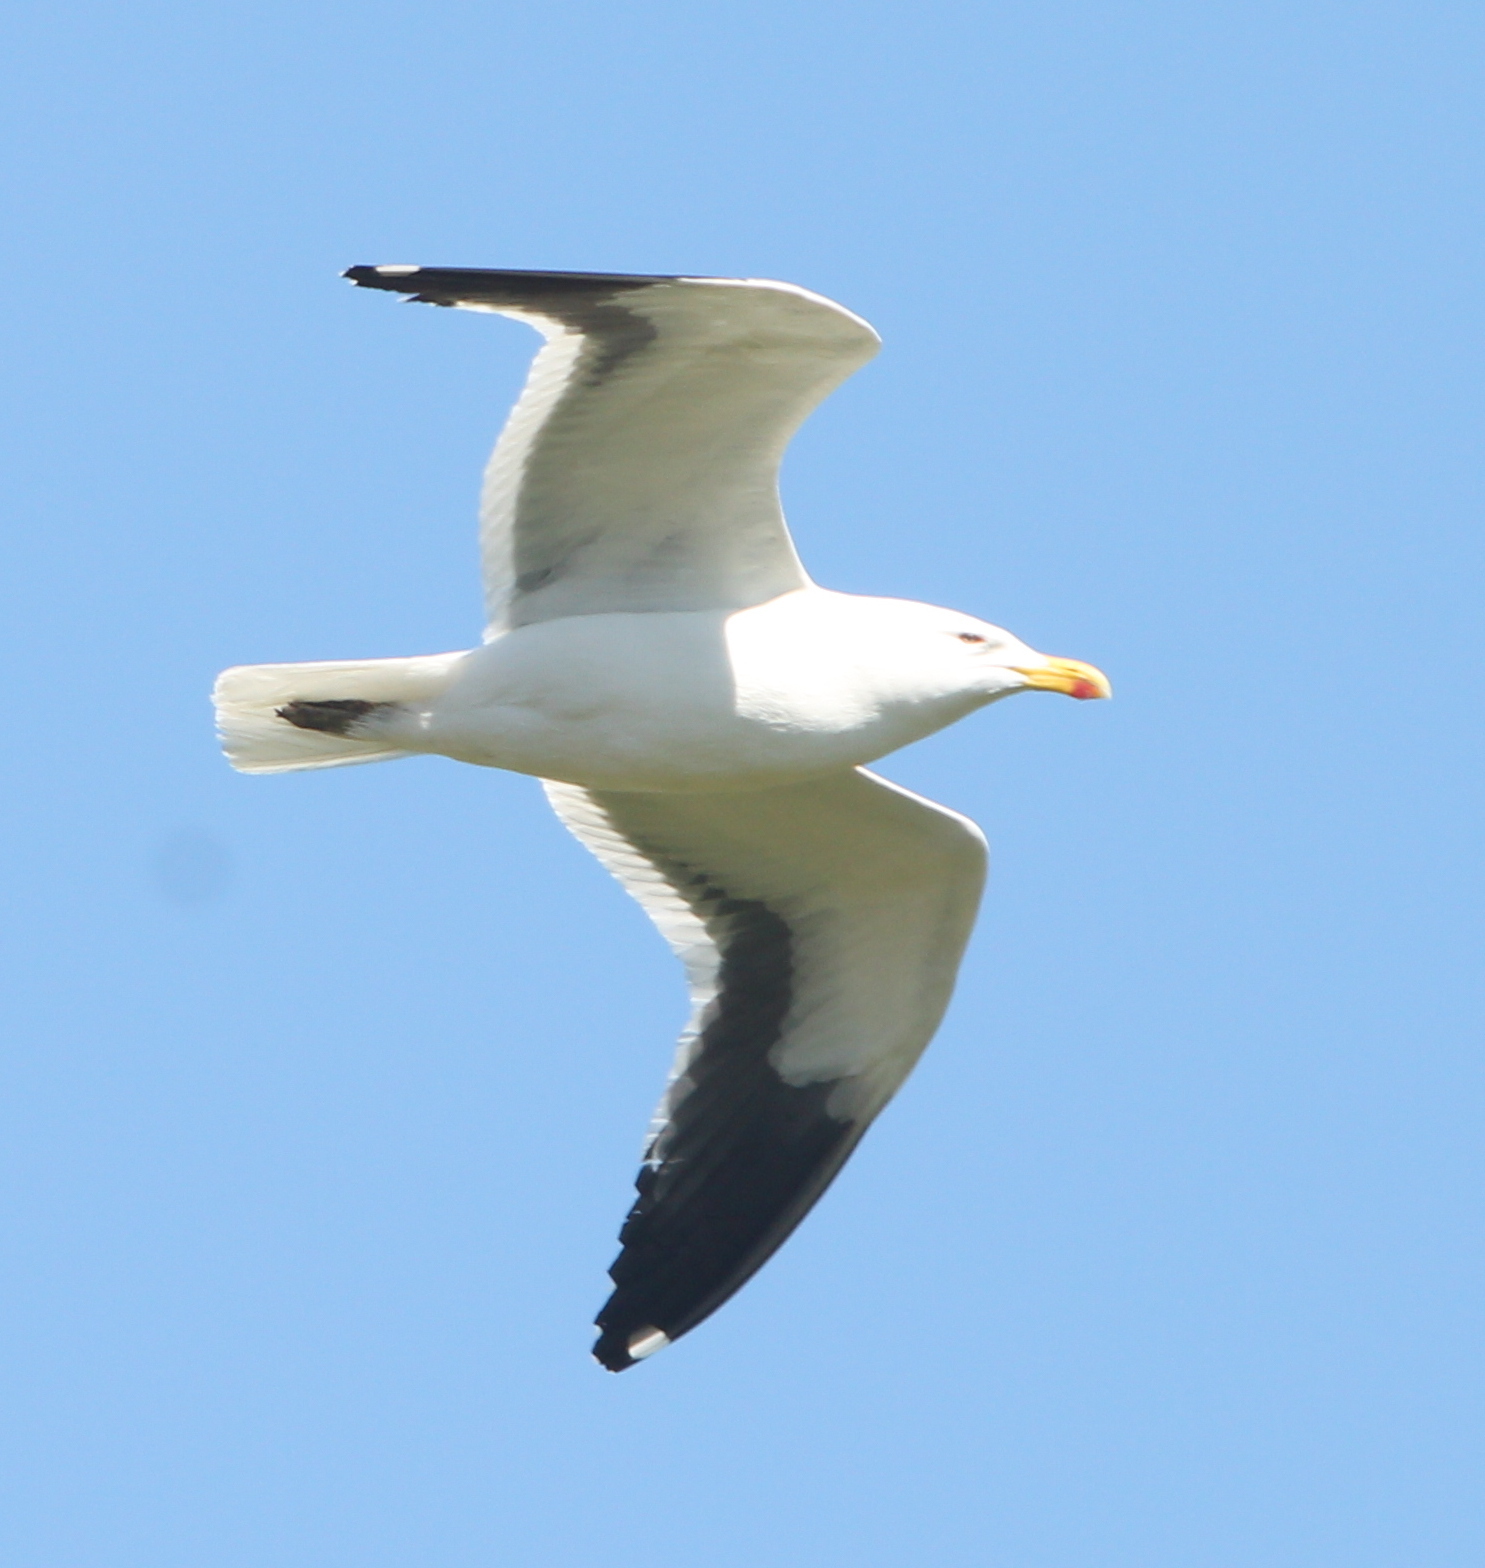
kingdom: Animalia
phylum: Chordata
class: Aves
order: Charadriiformes
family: Laridae
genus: Larus
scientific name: Larus dominicanus
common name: Kelp gull
